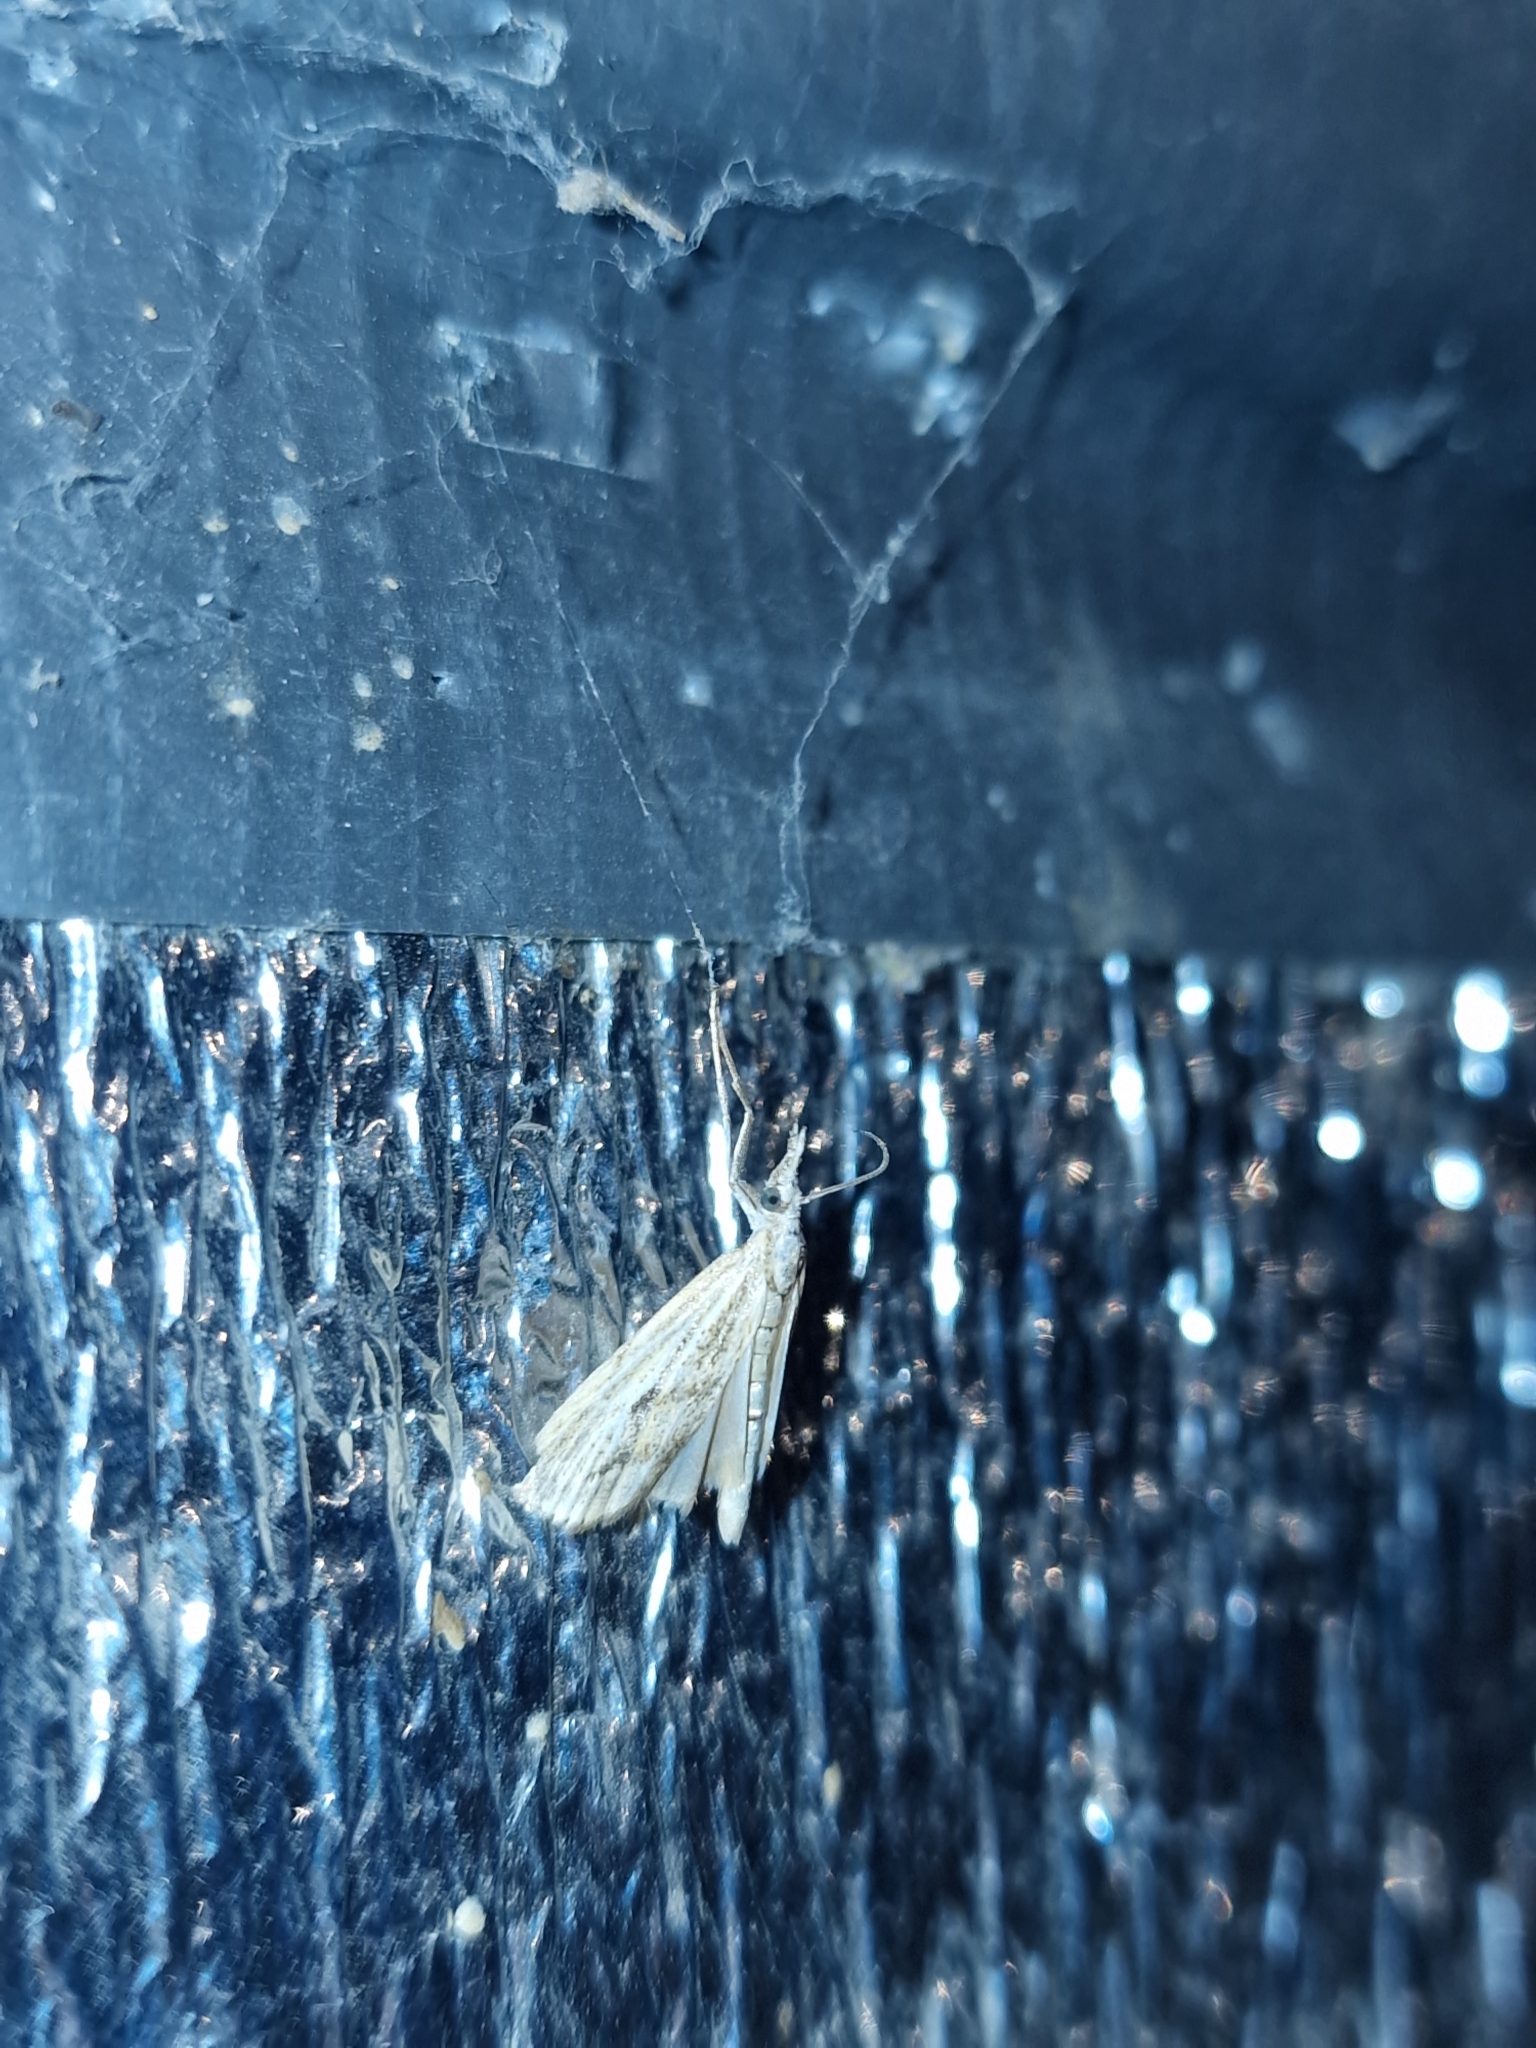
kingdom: Animalia
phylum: Arthropoda
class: Insecta
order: Lepidoptera
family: Crambidae
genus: Agriphila
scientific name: Agriphila tolli
